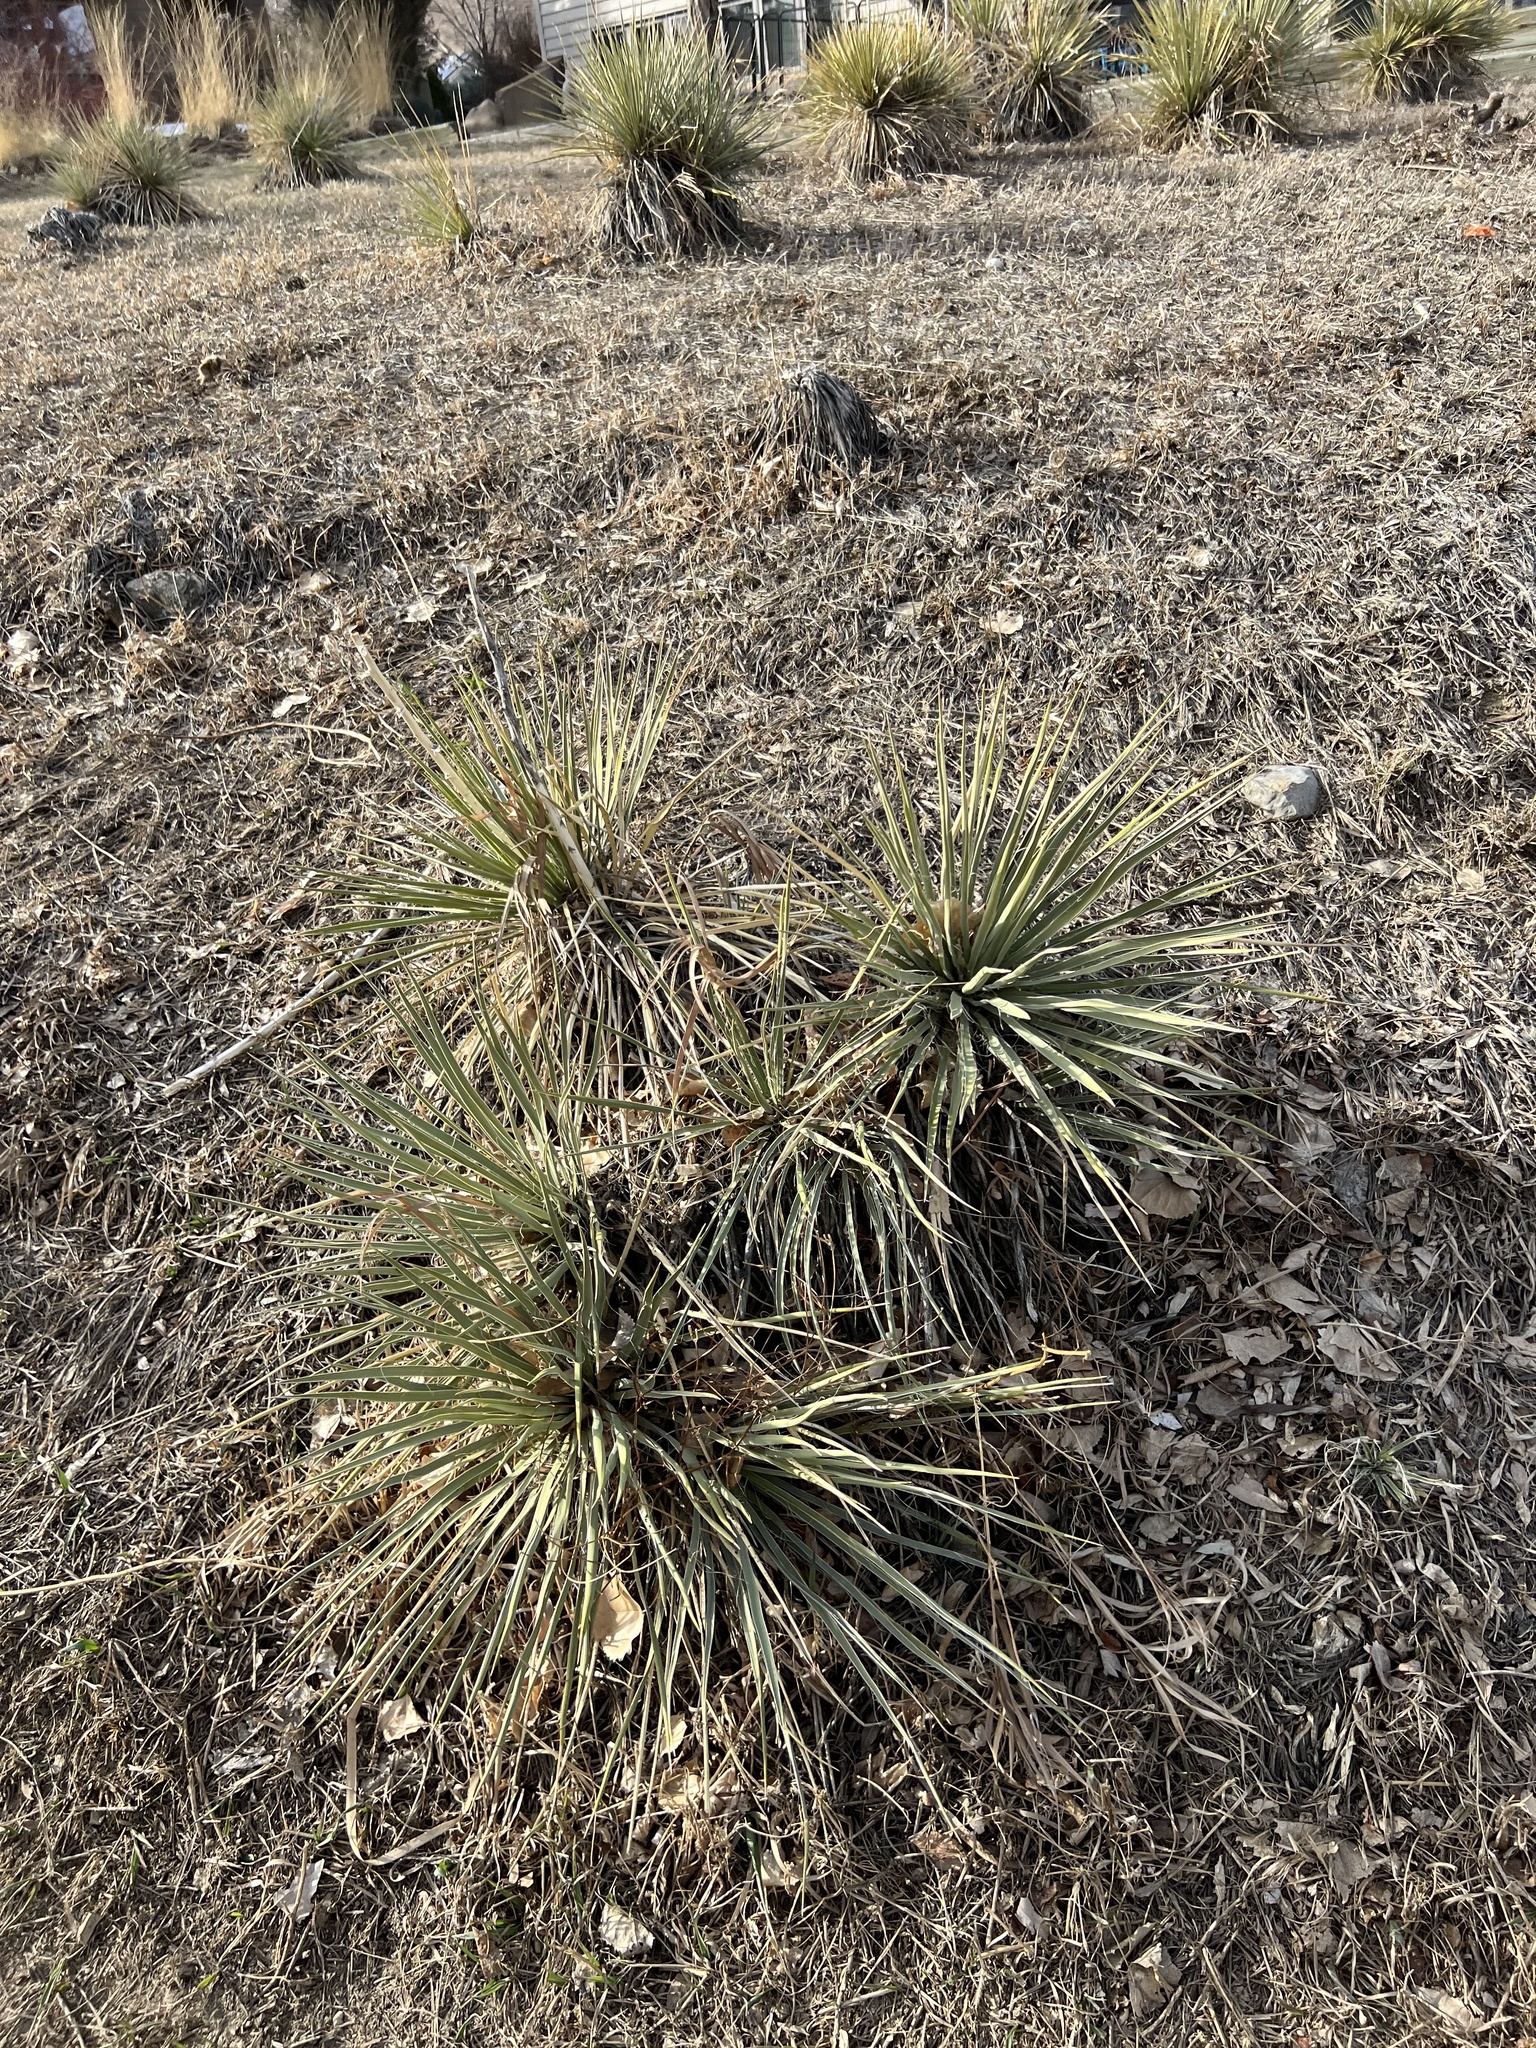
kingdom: Plantae
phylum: Tracheophyta
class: Liliopsida
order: Asparagales
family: Asparagaceae
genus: Yucca
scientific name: Yucca glauca
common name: Great plains yucca
